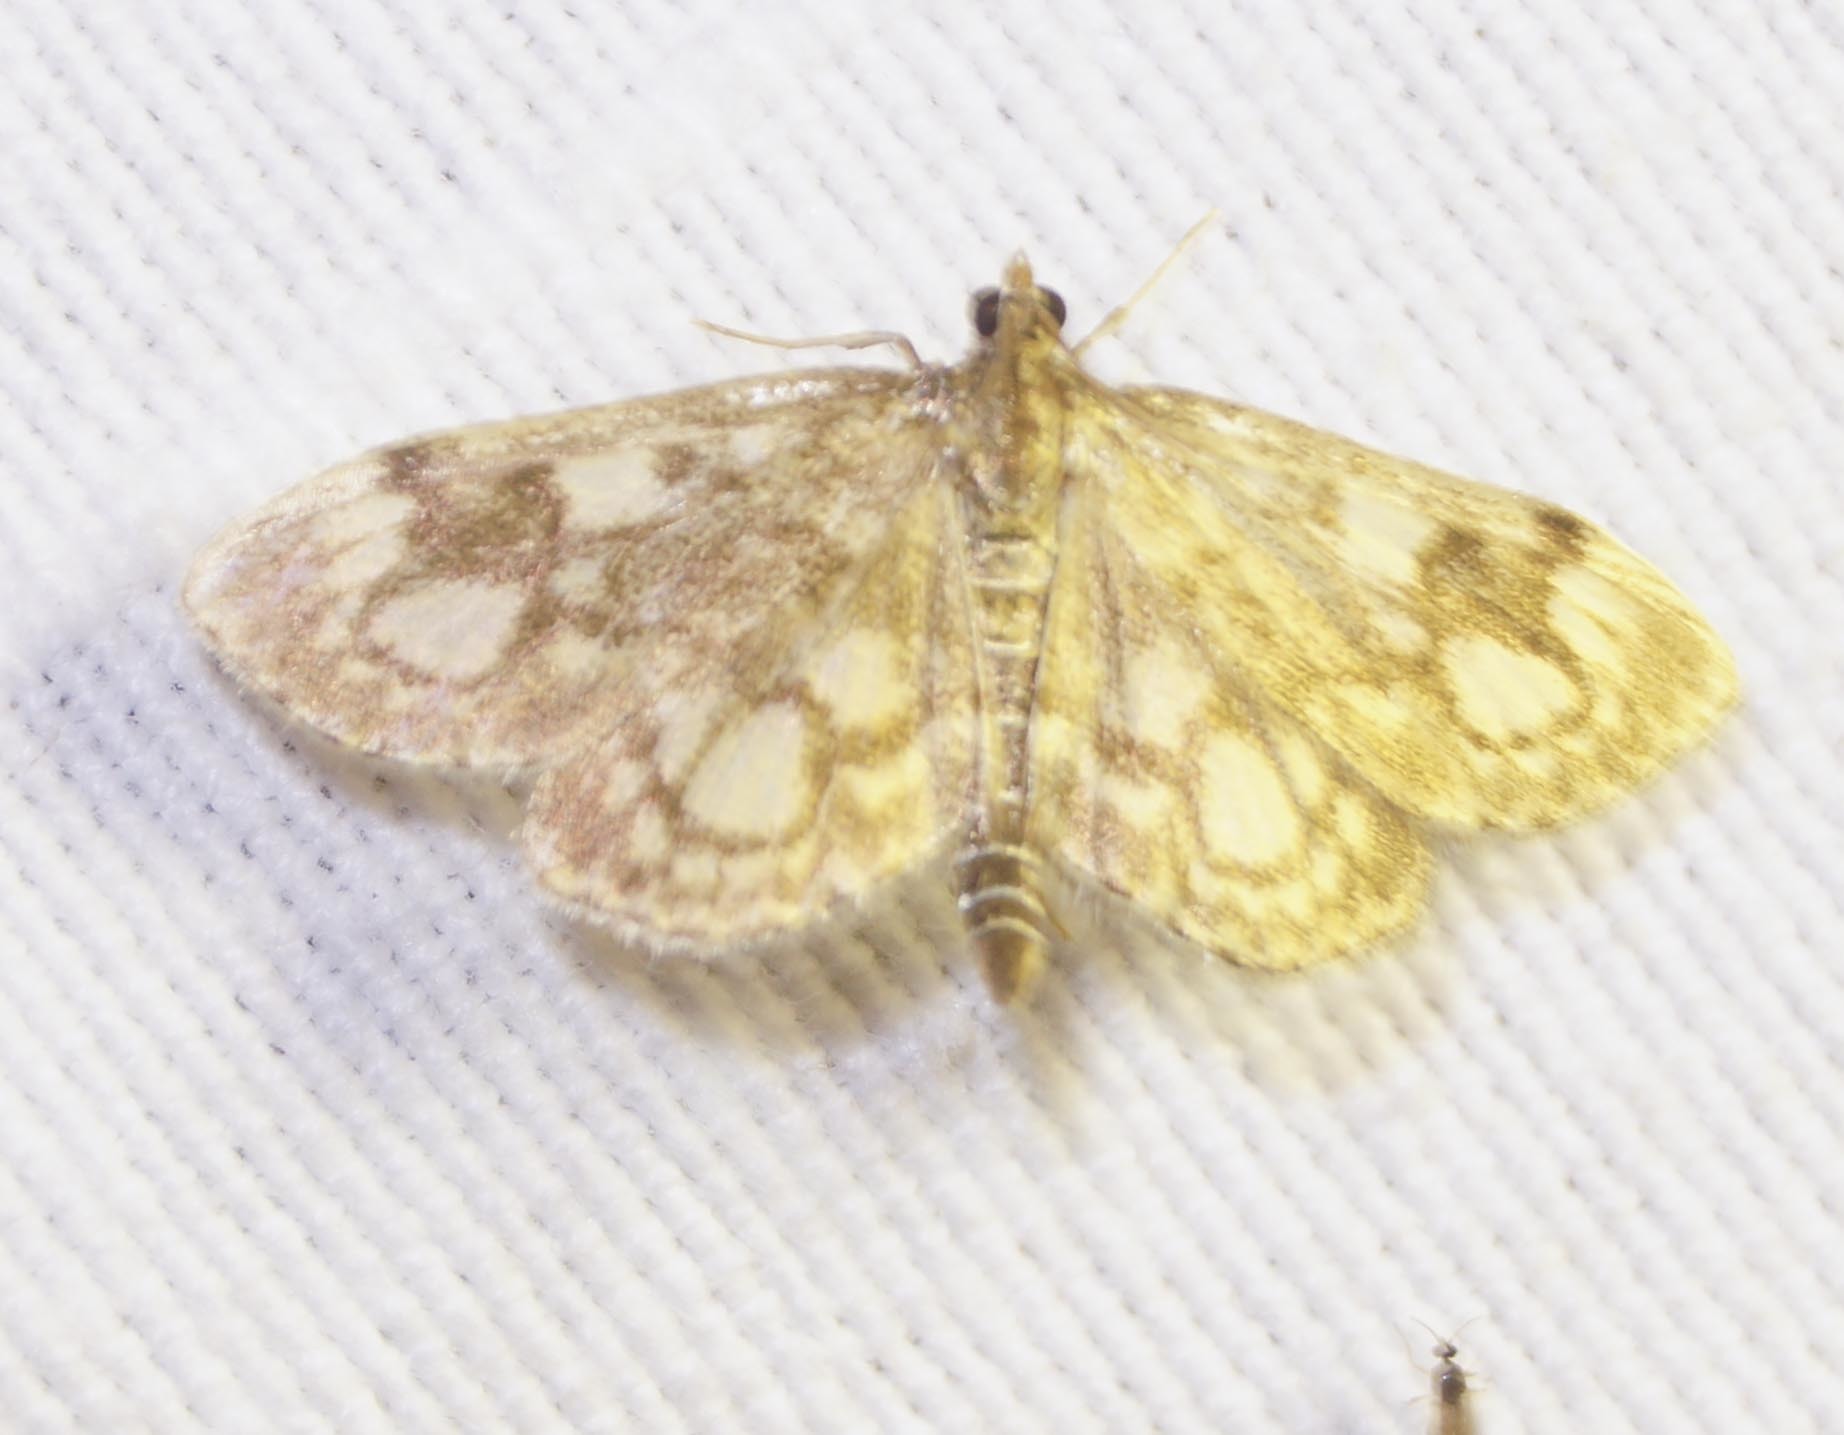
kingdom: Animalia
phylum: Arthropoda
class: Insecta
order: Lepidoptera
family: Crambidae
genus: Anania
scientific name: Anania coronata
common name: Elder pearl
